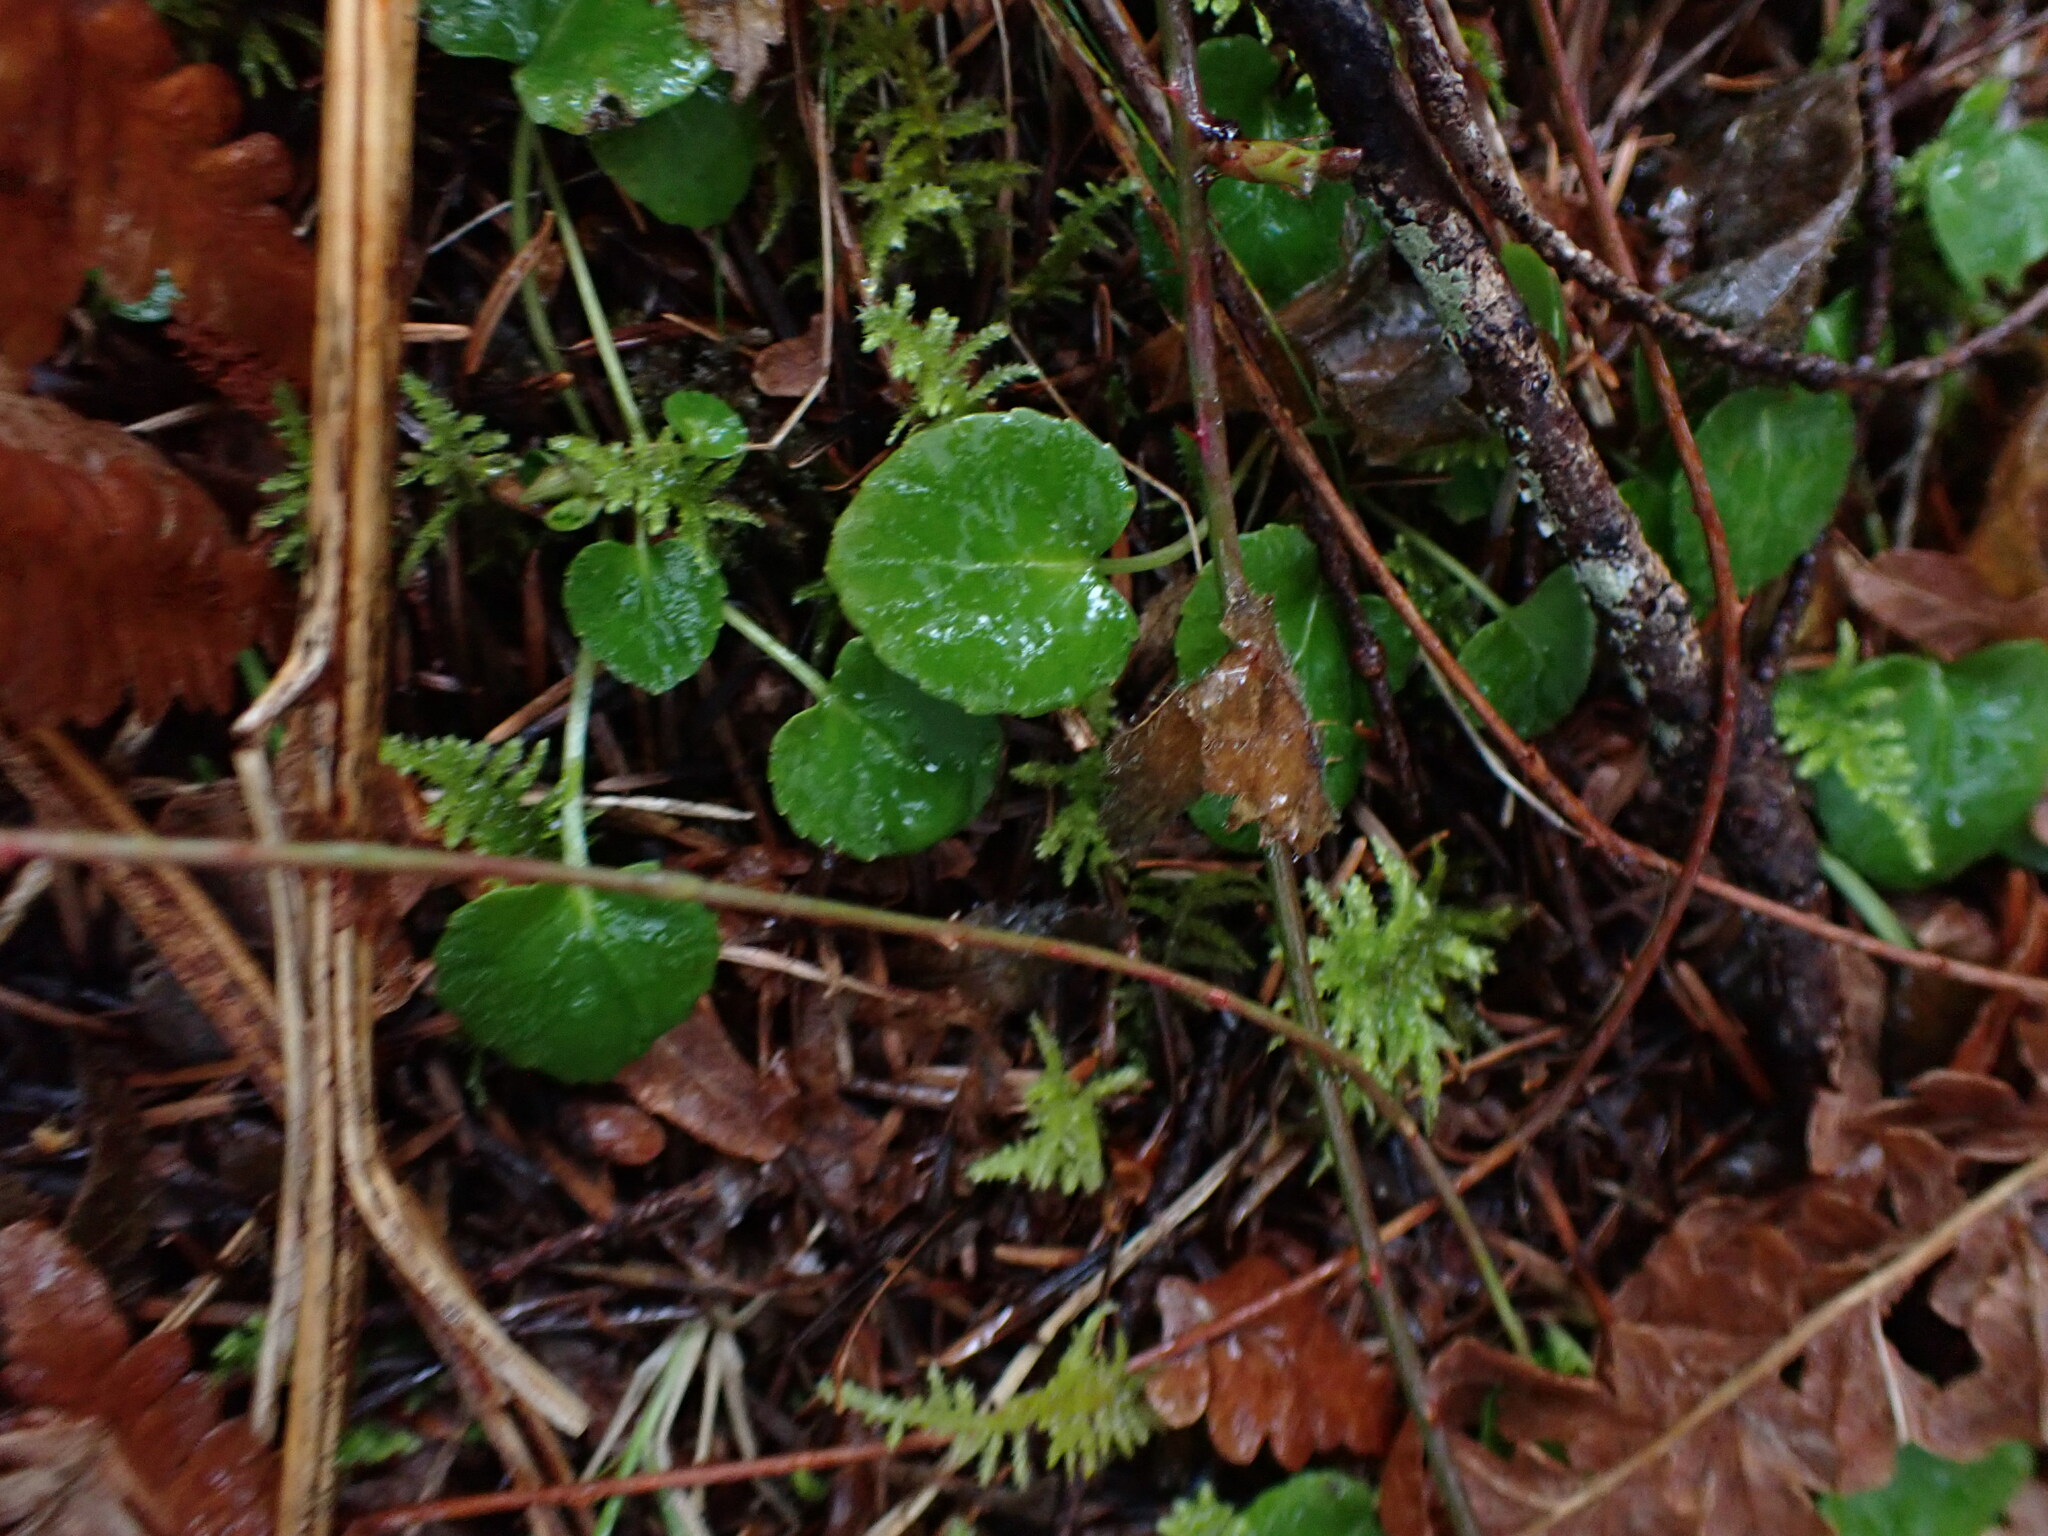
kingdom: Plantae
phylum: Tracheophyta
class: Magnoliopsida
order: Malpighiales
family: Violaceae
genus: Viola
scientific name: Viola sempervirens
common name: Evergreen violet
